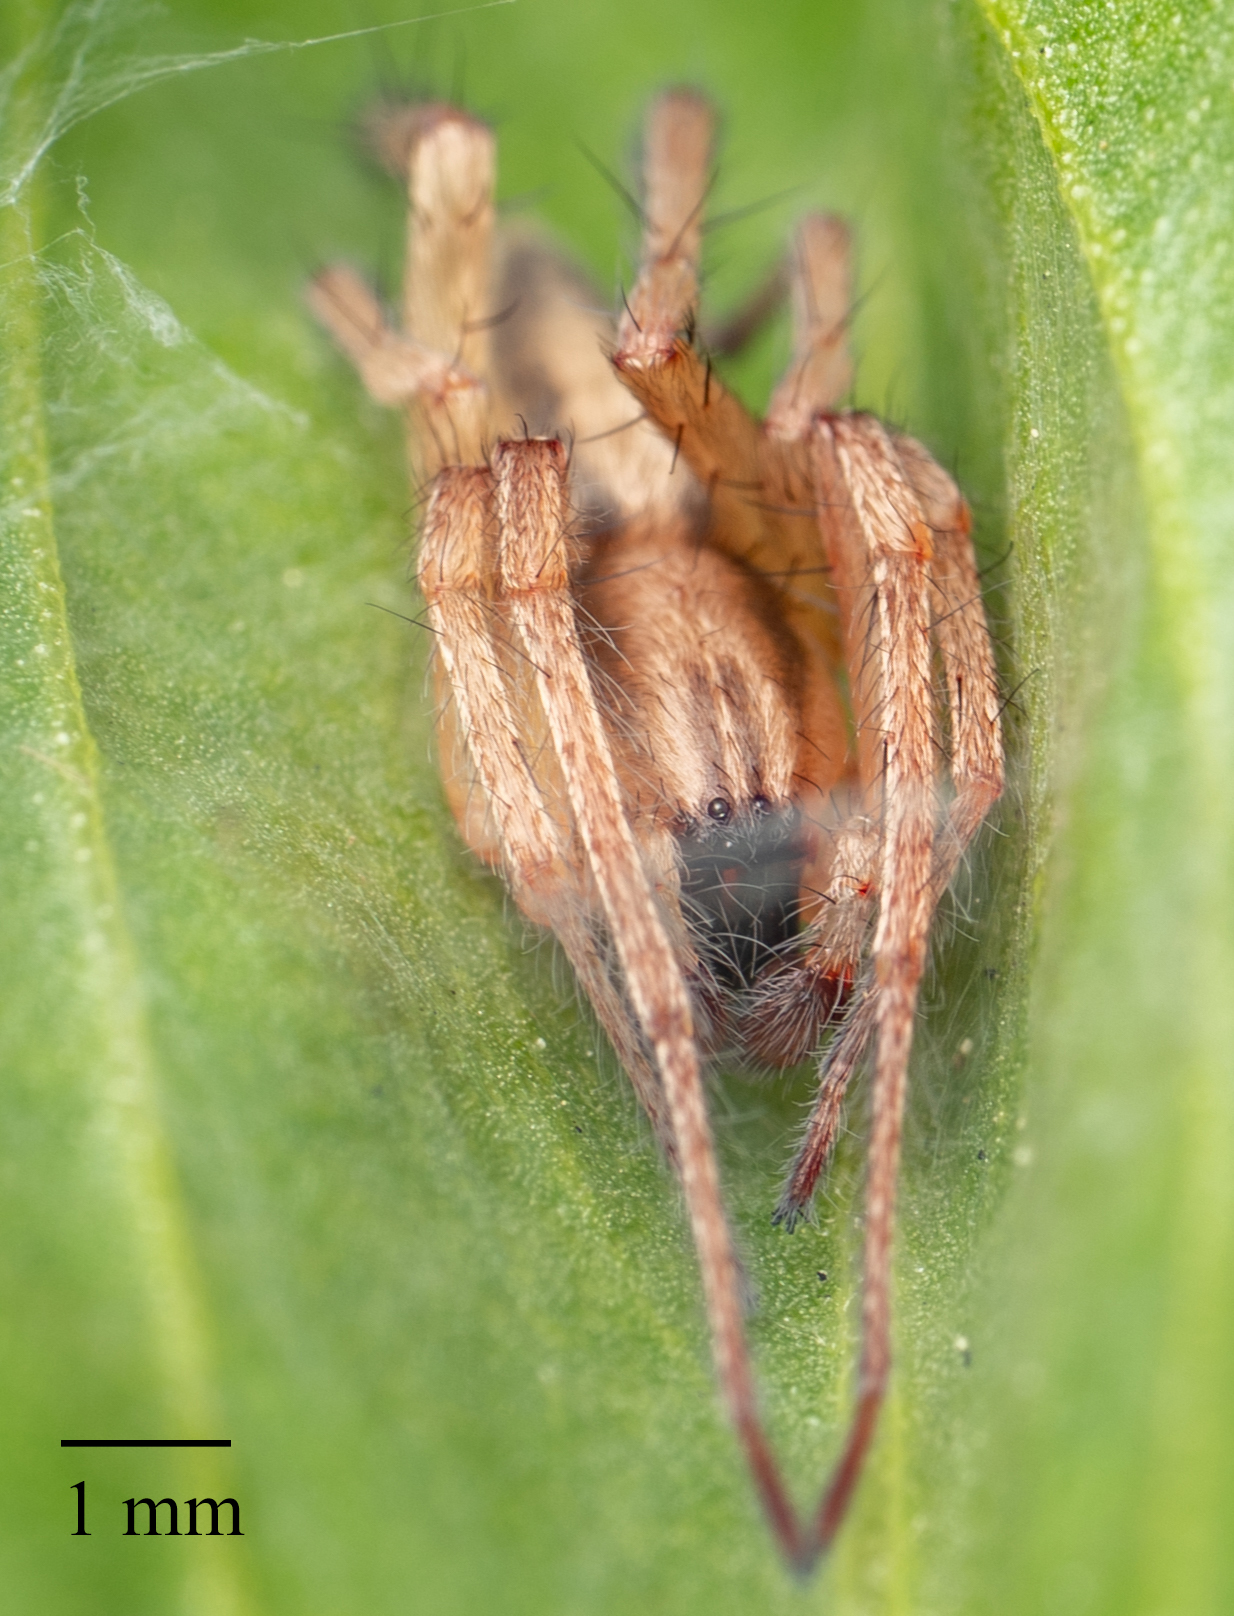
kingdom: Animalia
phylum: Arthropoda
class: Arachnida
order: Araneae
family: Anyphaenidae
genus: Hibana
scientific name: Hibana incursa
